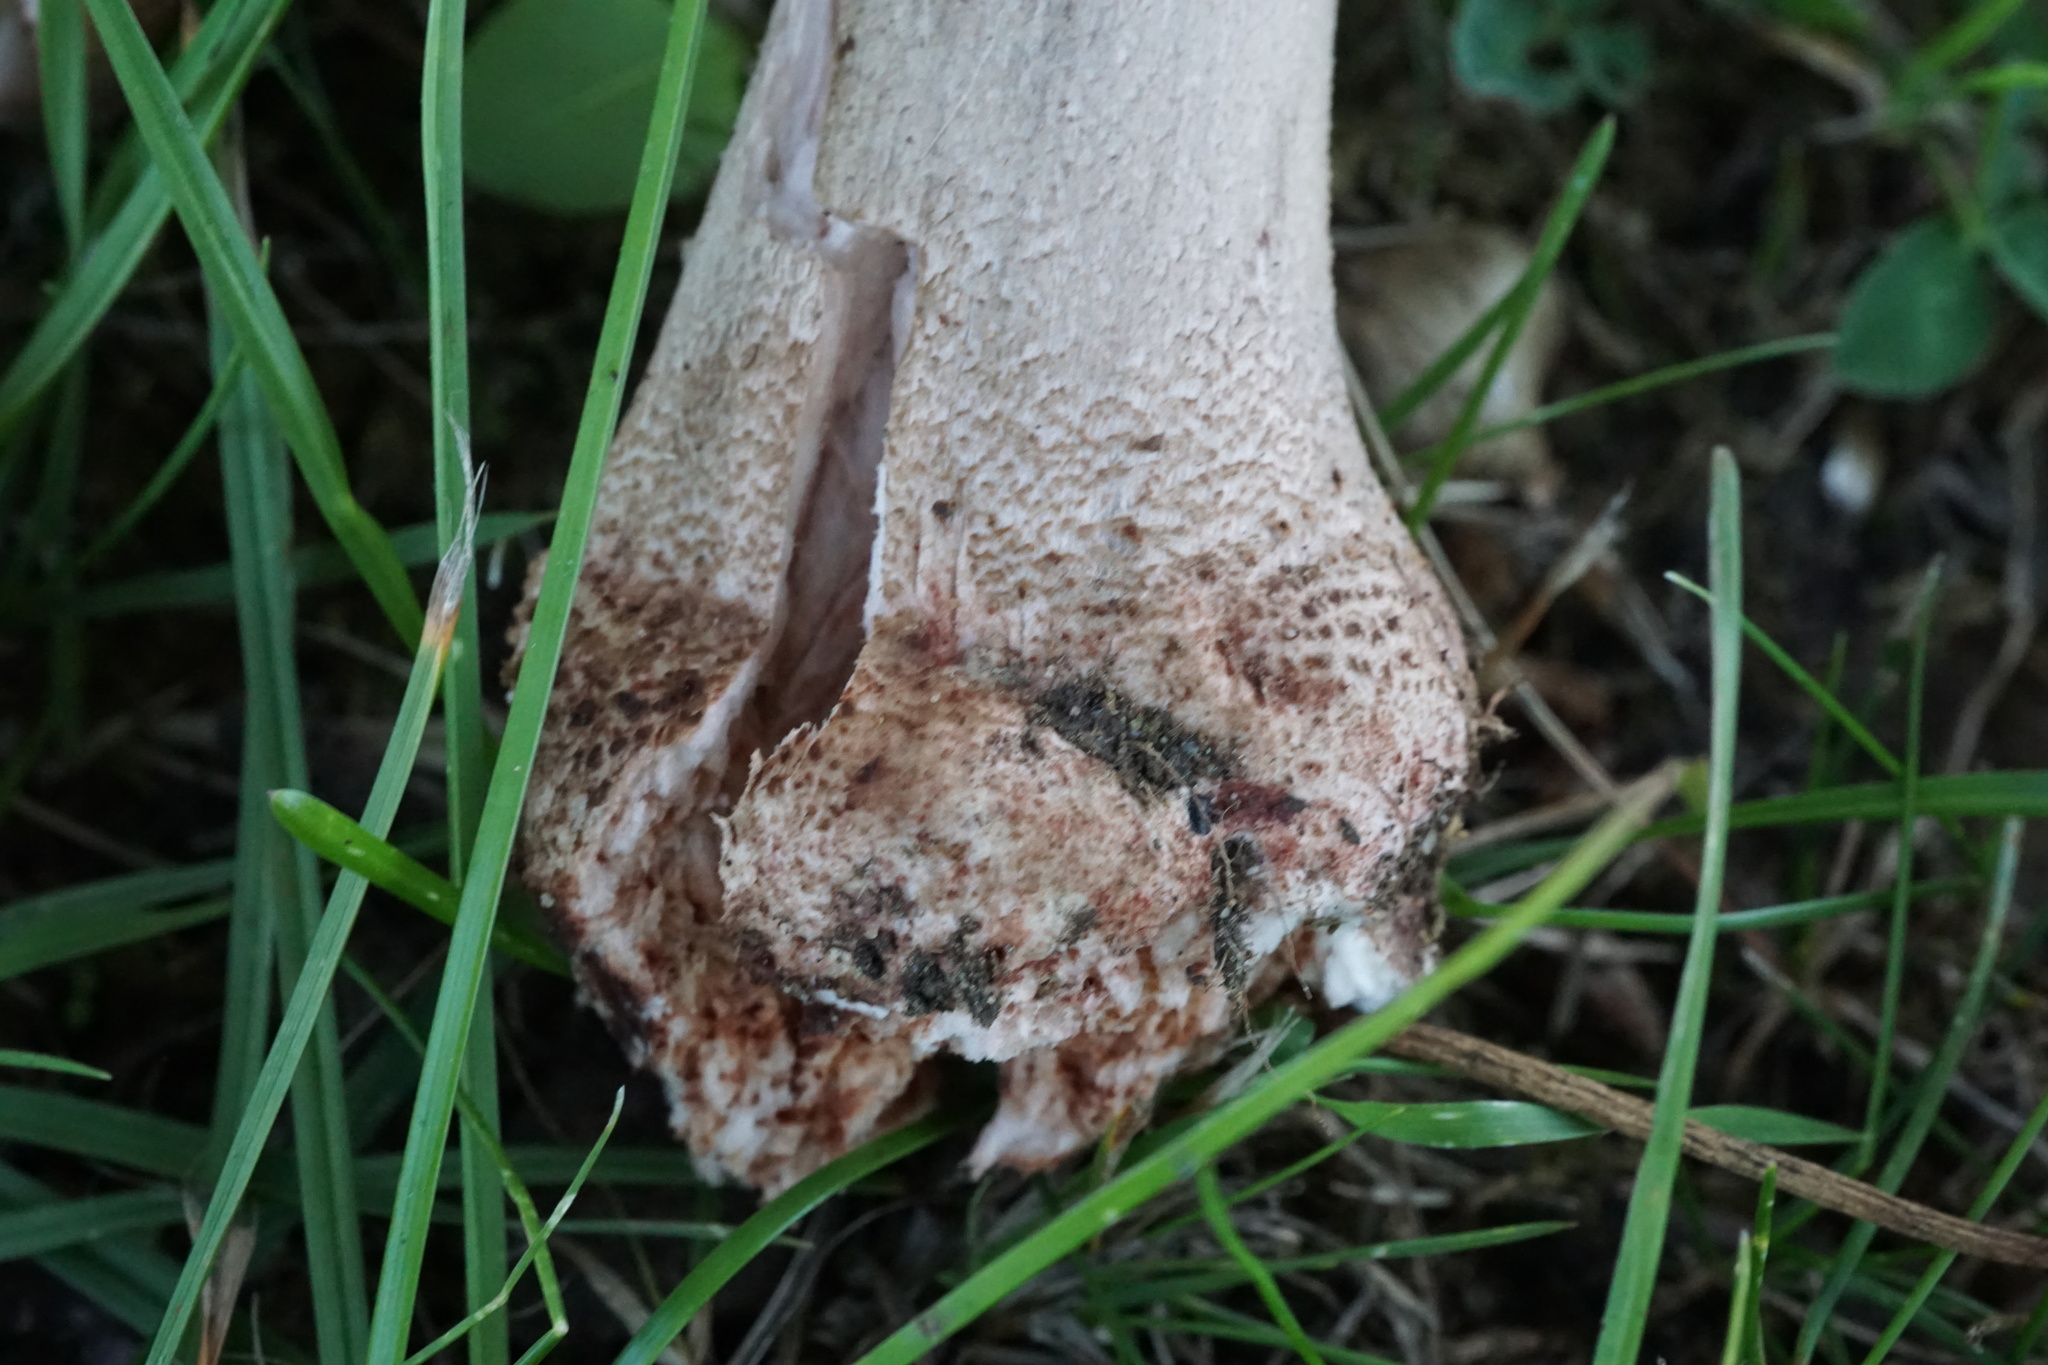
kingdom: Fungi
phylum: Basidiomycota
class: Agaricomycetes
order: Agaricales
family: Amanitaceae
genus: Amanita
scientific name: Amanita rubescens
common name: Blusher
